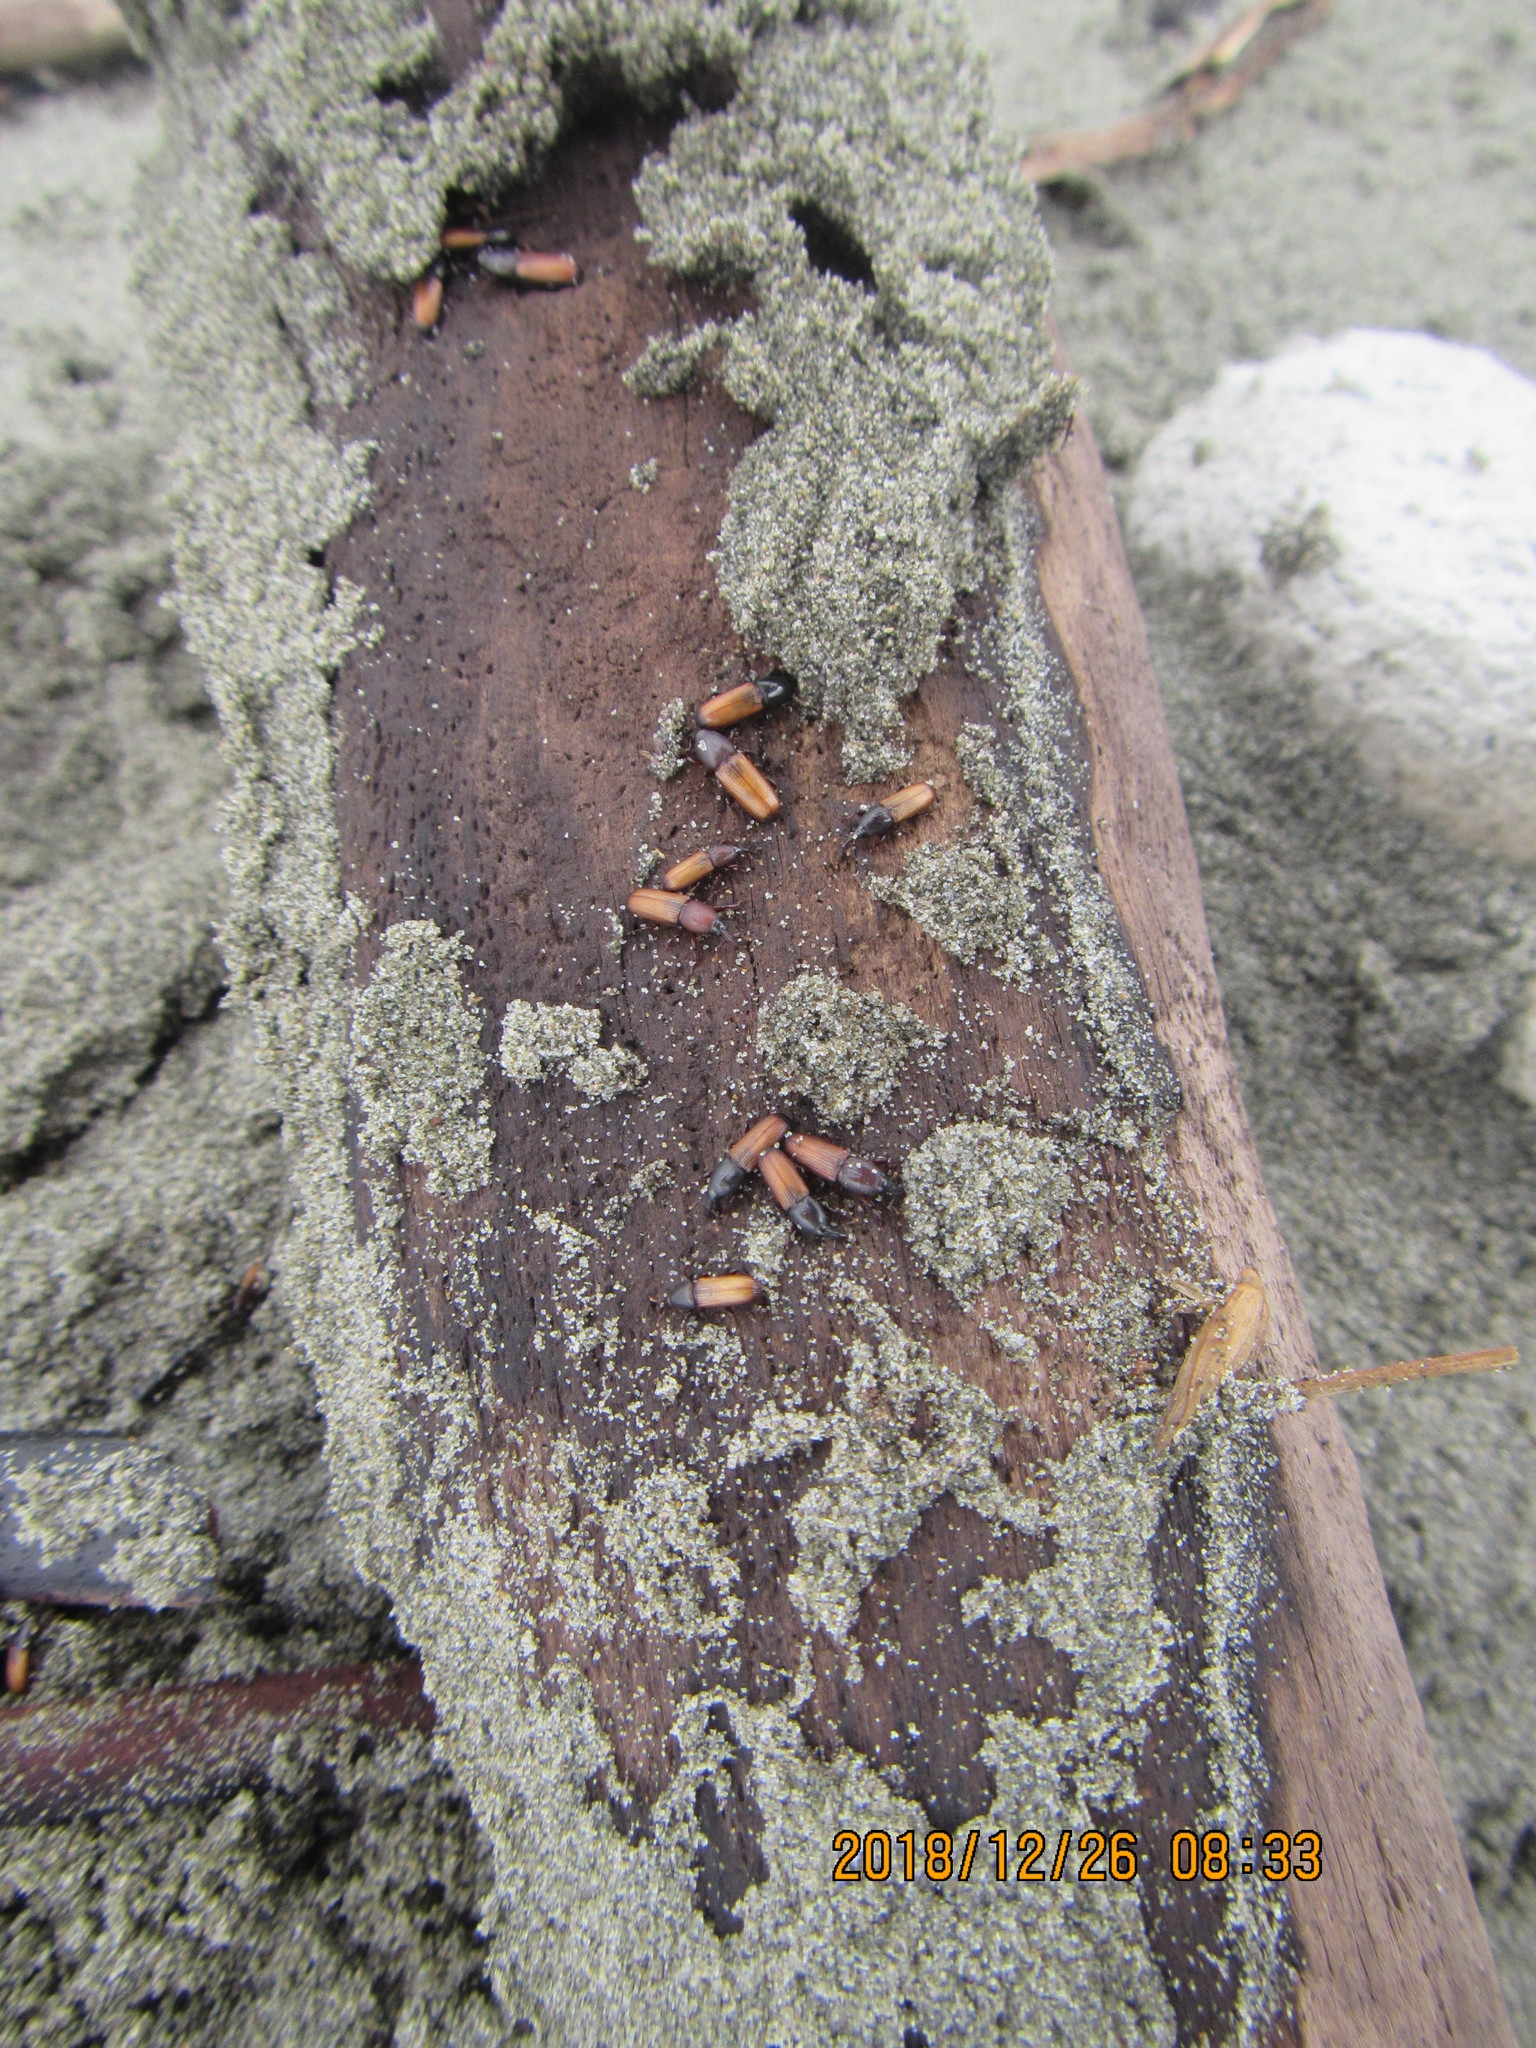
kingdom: Animalia
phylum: Arthropoda
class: Insecta
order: Coleoptera
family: Curculionidae
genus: Mesites
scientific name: Mesites pallidipennis
